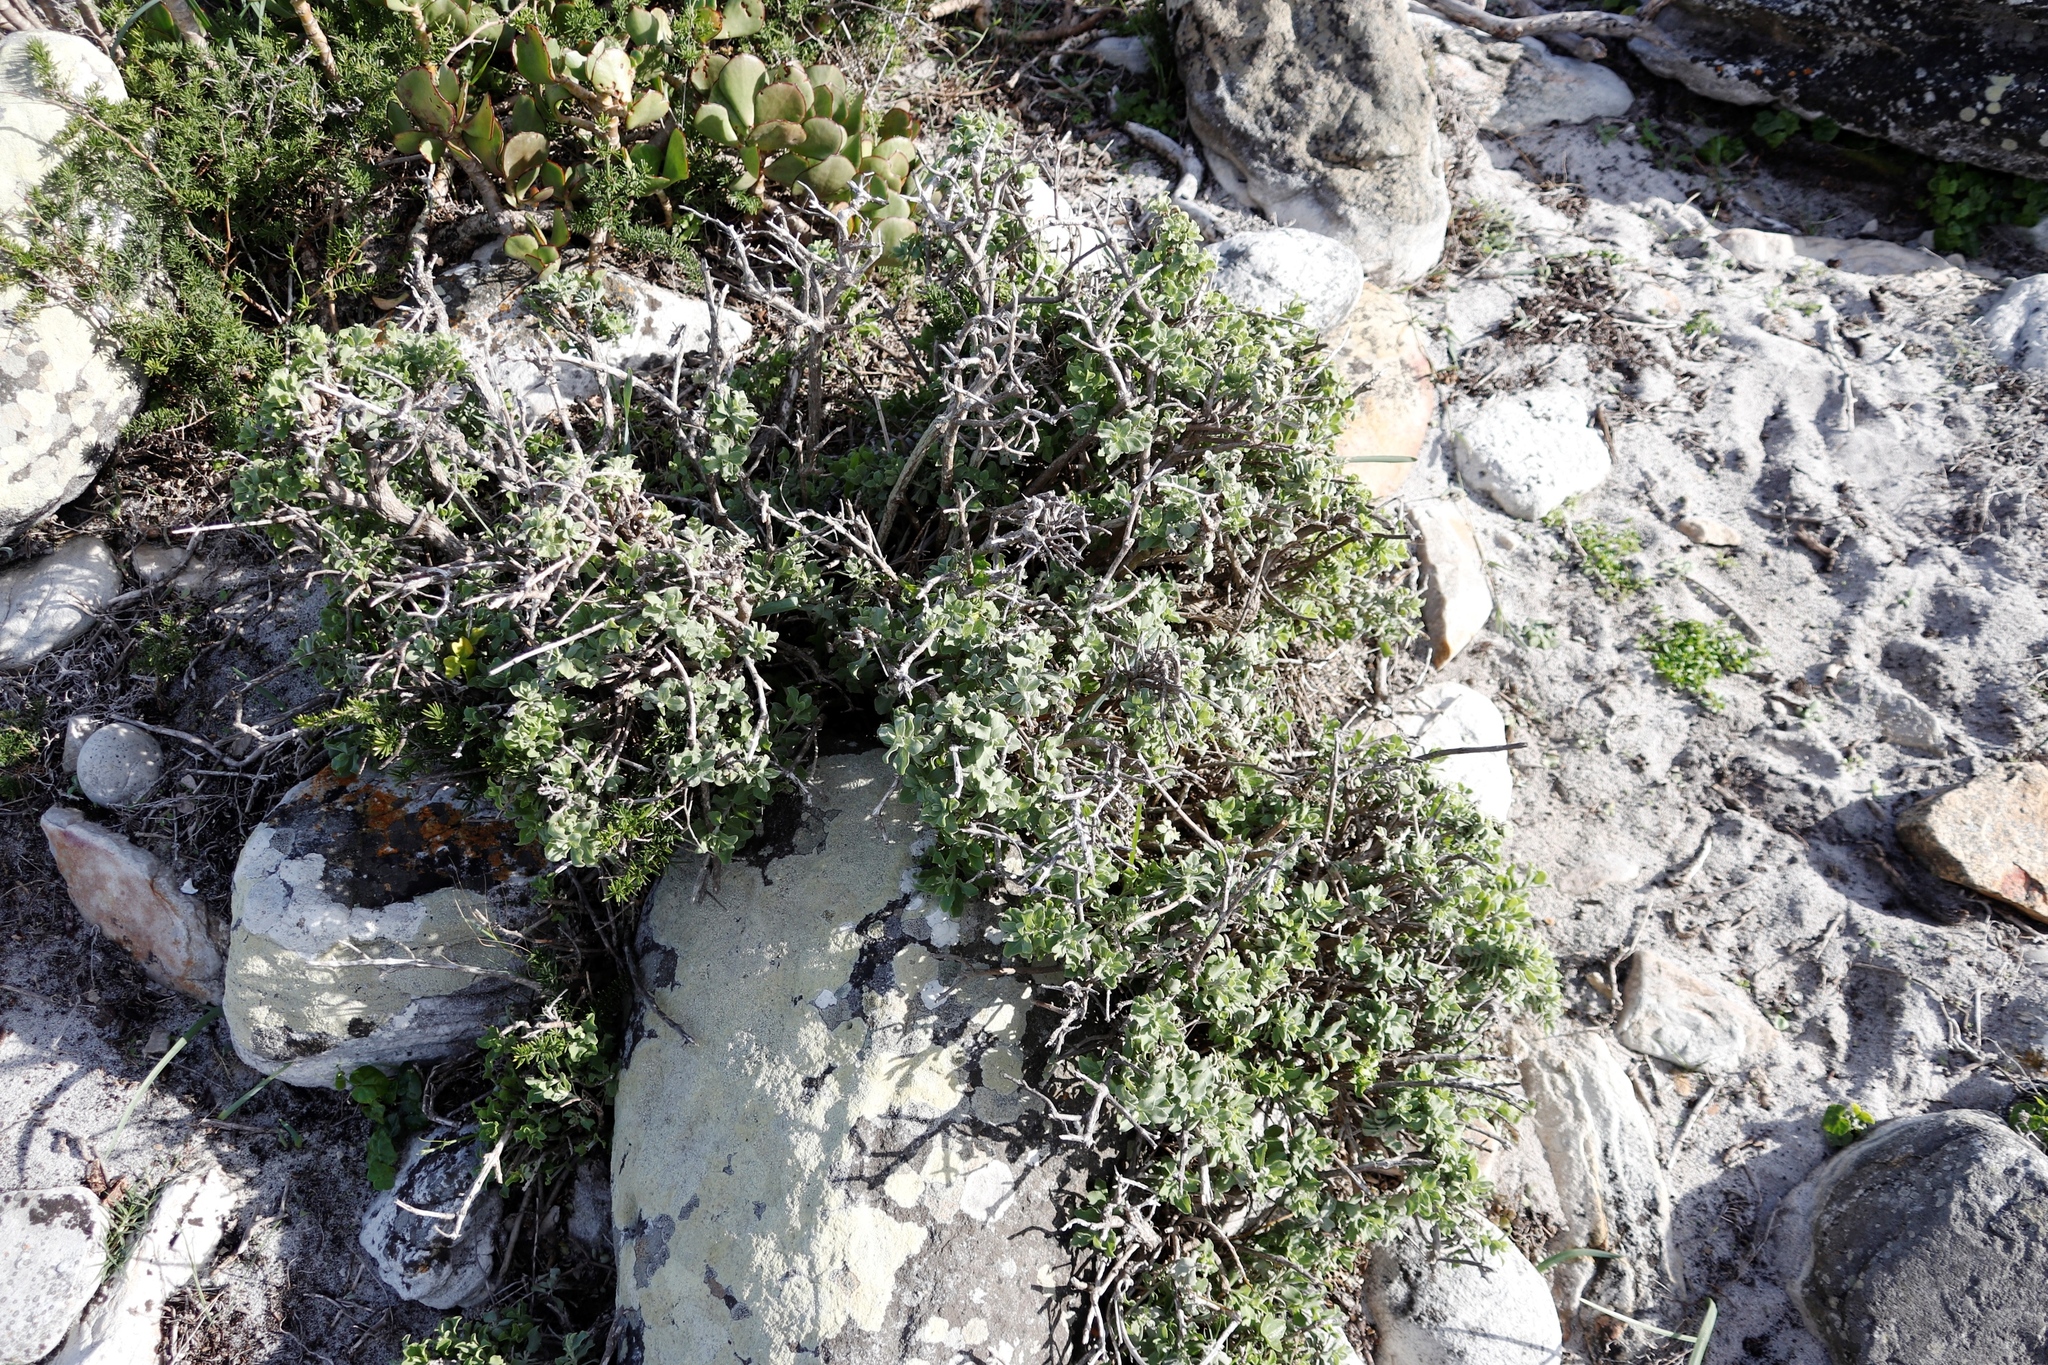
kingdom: Plantae
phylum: Tracheophyta
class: Magnoliopsida
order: Lamiales
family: Lamiaceae
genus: Salvia
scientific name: Salvia aurea
